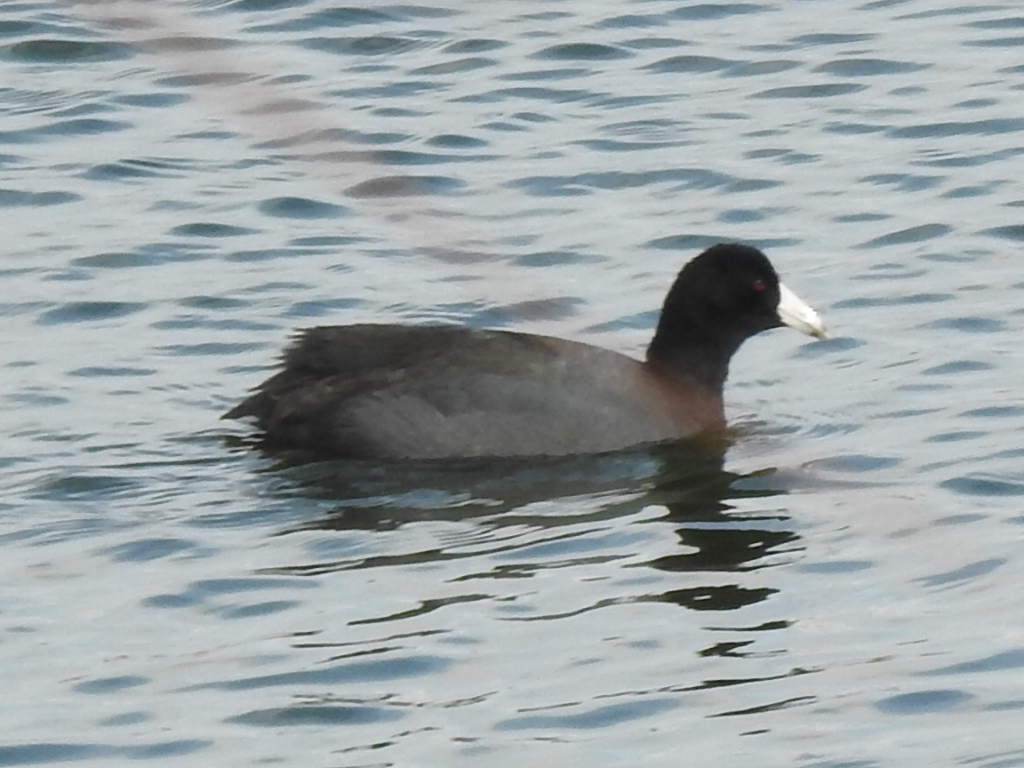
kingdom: Animalia
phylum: Chordata
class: Aves
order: Gruiformes
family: Rallidae
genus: Fulica
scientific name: Fulica americana
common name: American coot
